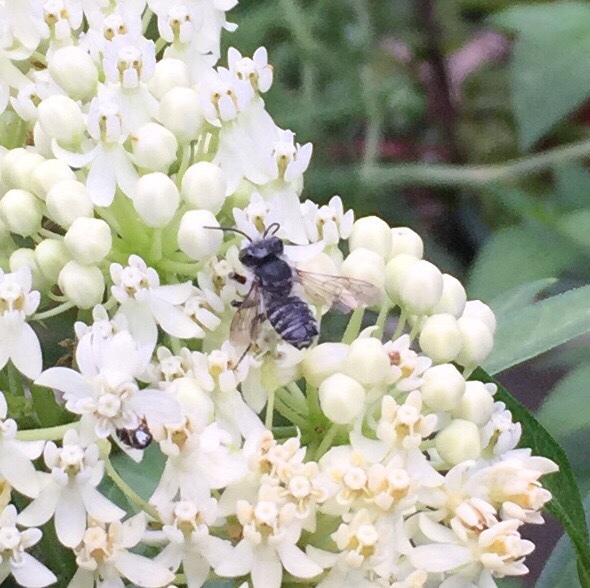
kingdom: Animalia
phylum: Arthropoda
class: Insecta
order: Hymenoptera
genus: Litomegachile
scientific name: Litomegachile
